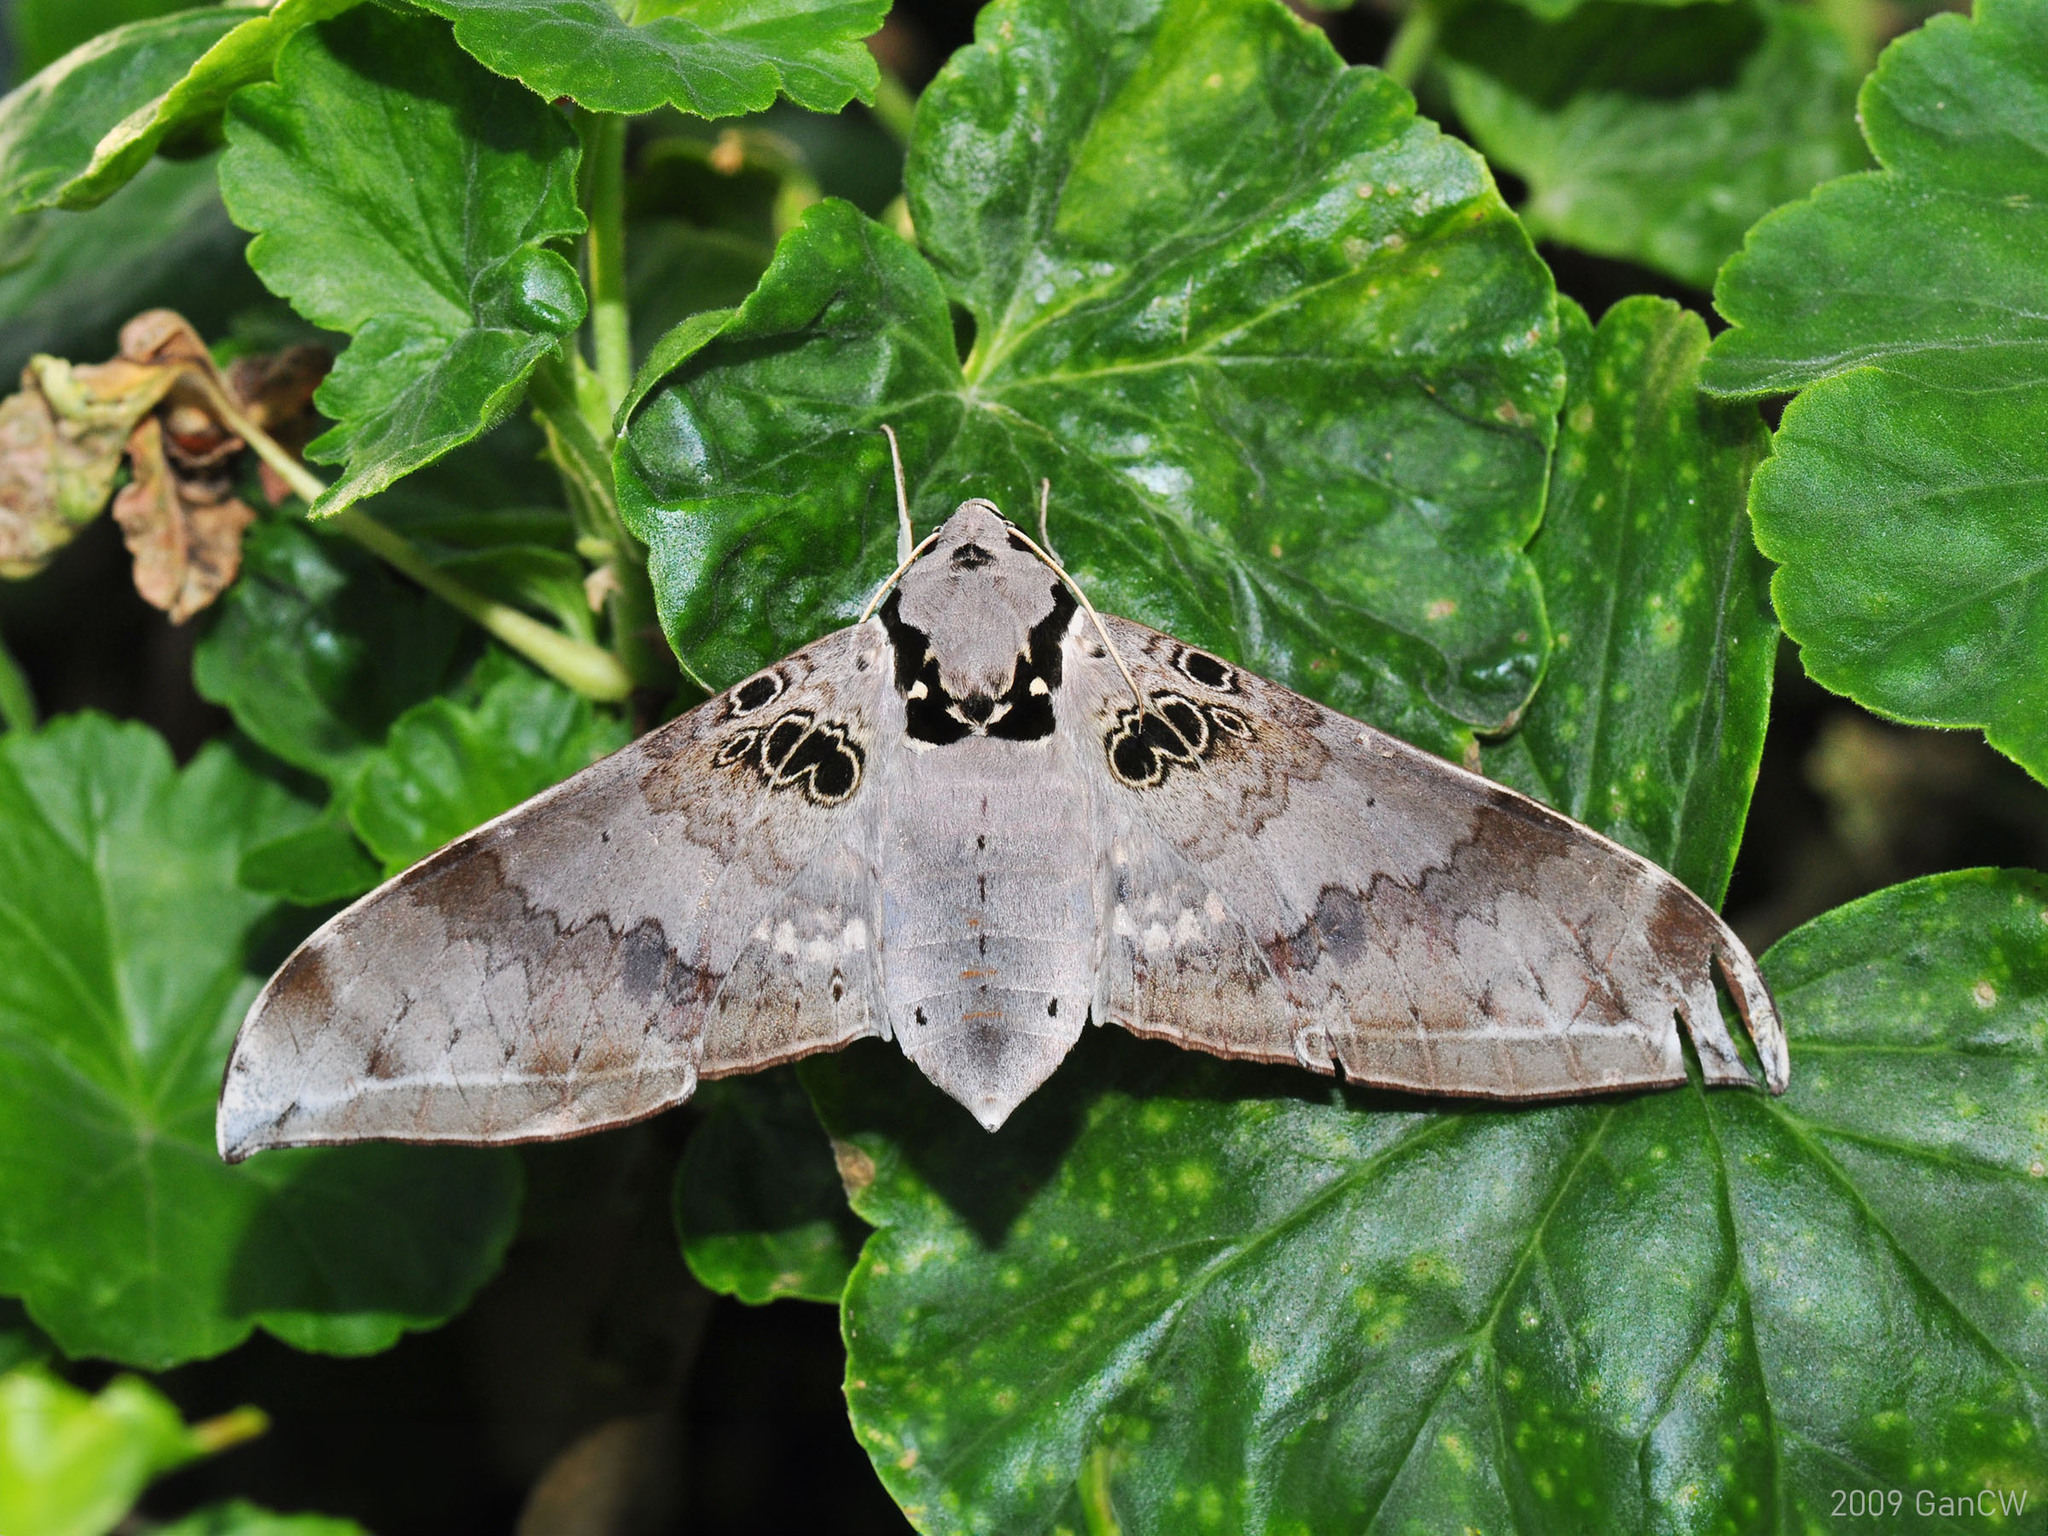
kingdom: Animalia
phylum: Arthropoda
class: Insecta
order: Lepidoptera
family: Sphingidae
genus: Ambulyx
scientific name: Ambulyx canescens
